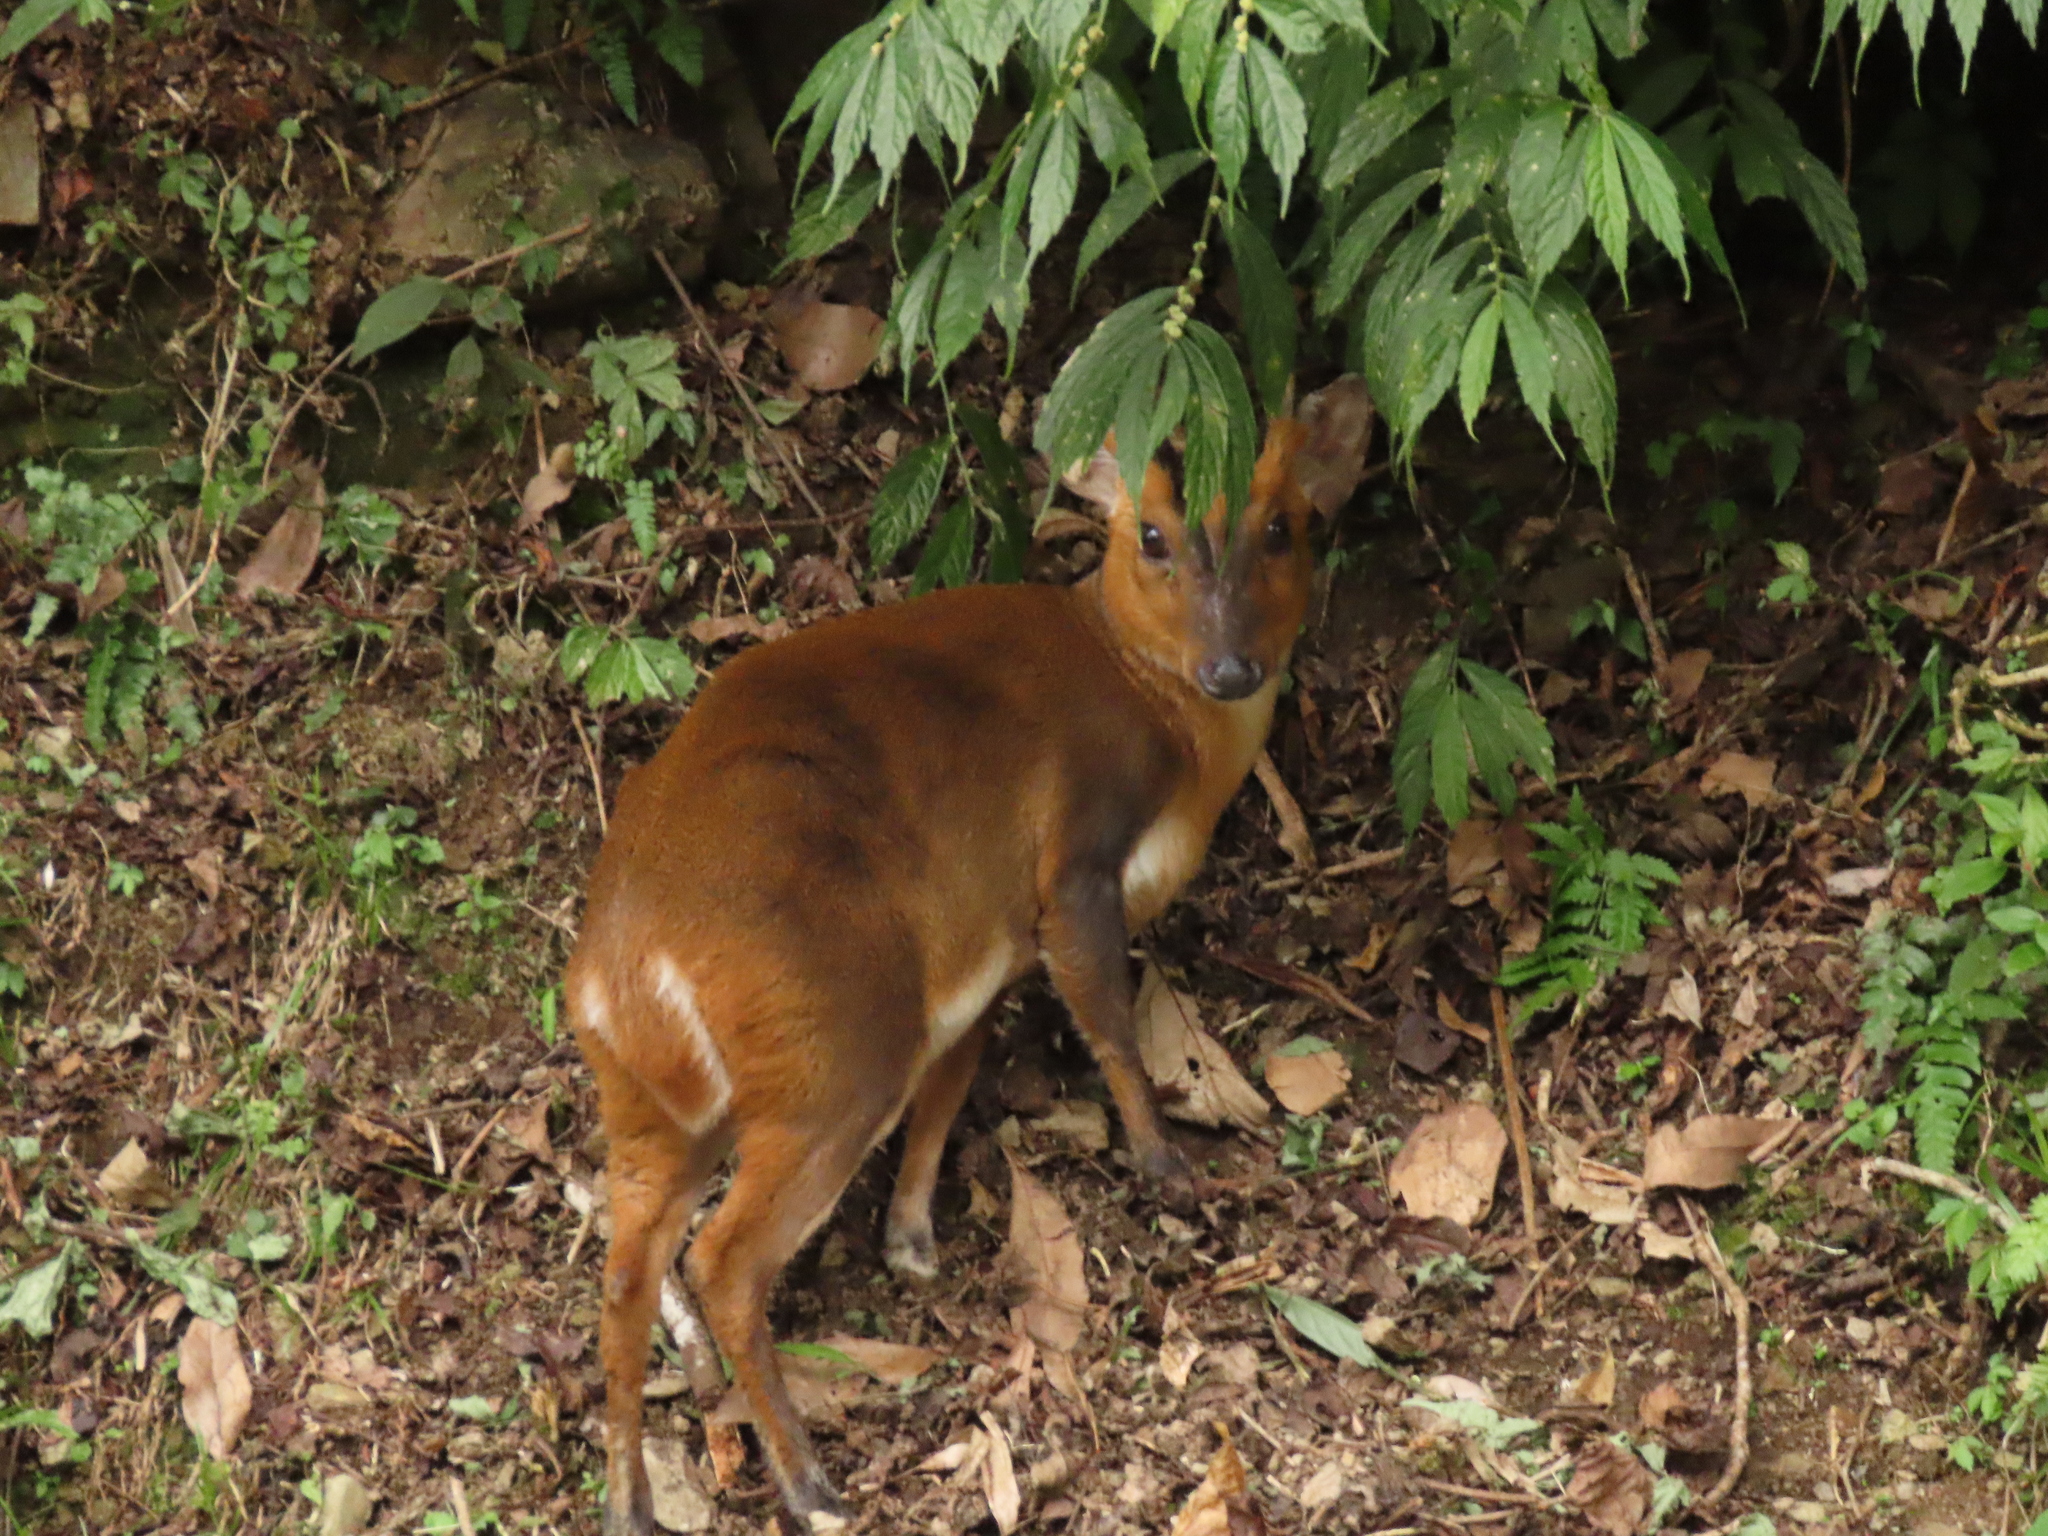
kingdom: Animalia
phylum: Chordata
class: Mammalia
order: Artiodactyla
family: Cervidae
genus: Muntiacus
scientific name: Muntiacus reevesi
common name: Reeves' muntjac
